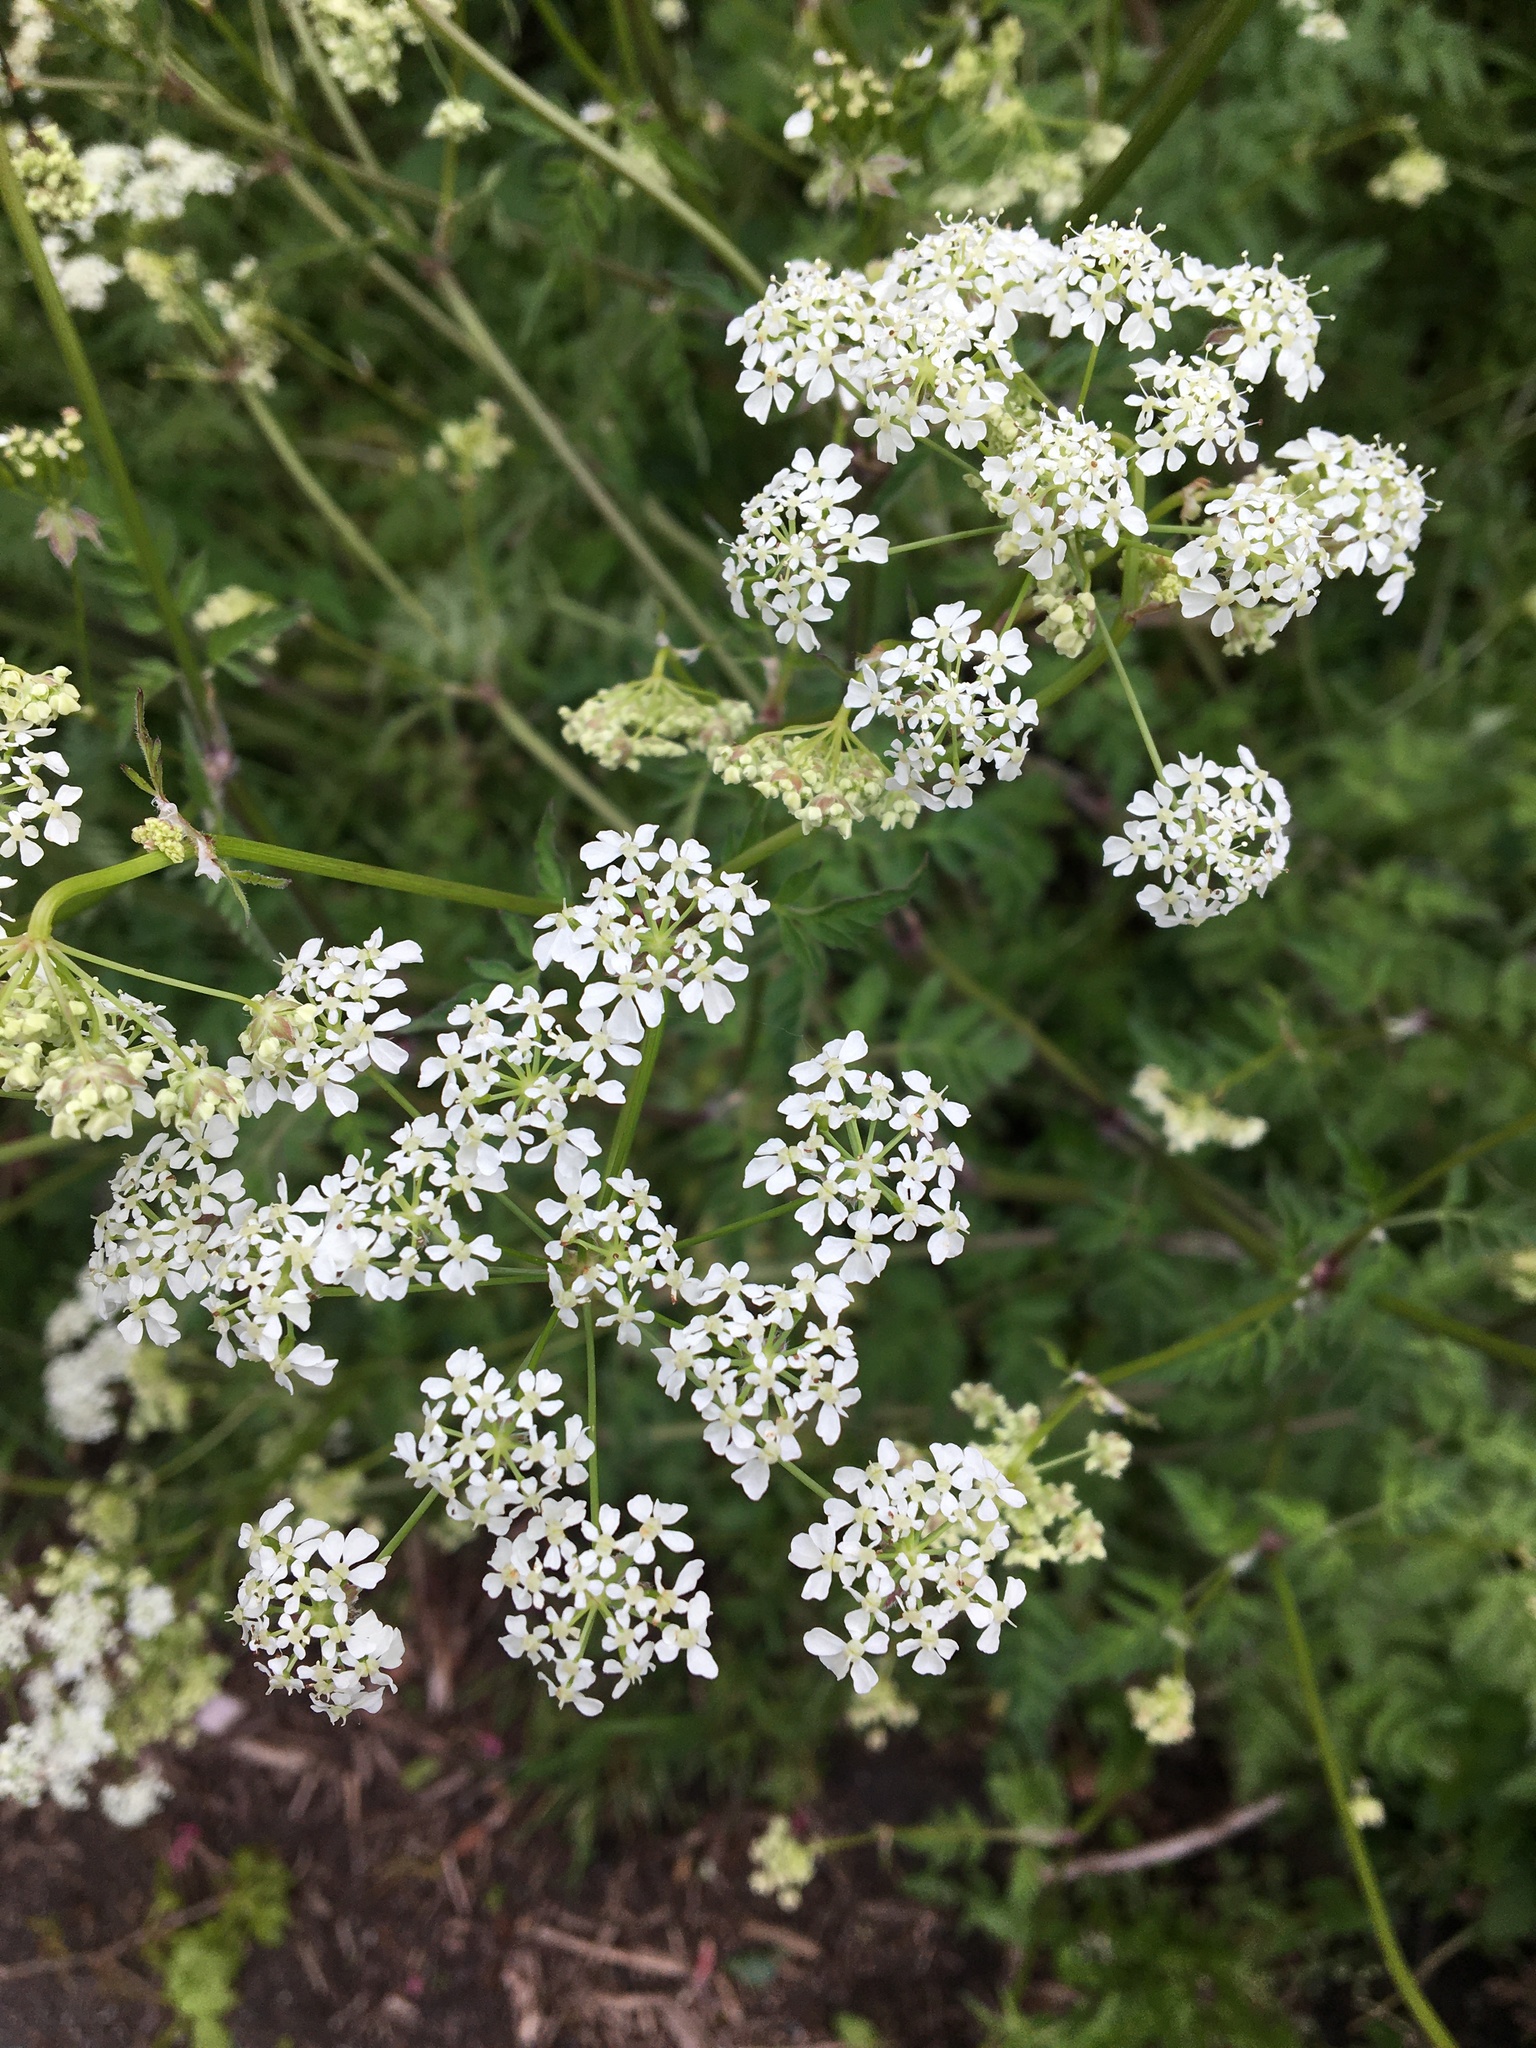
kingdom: Plantae
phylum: Tracheophyta
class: Magnoliopsida
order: Apiales
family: Apiaceae
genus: Anthriscus
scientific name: Anthriscus sylvestris
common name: Cow parsley
